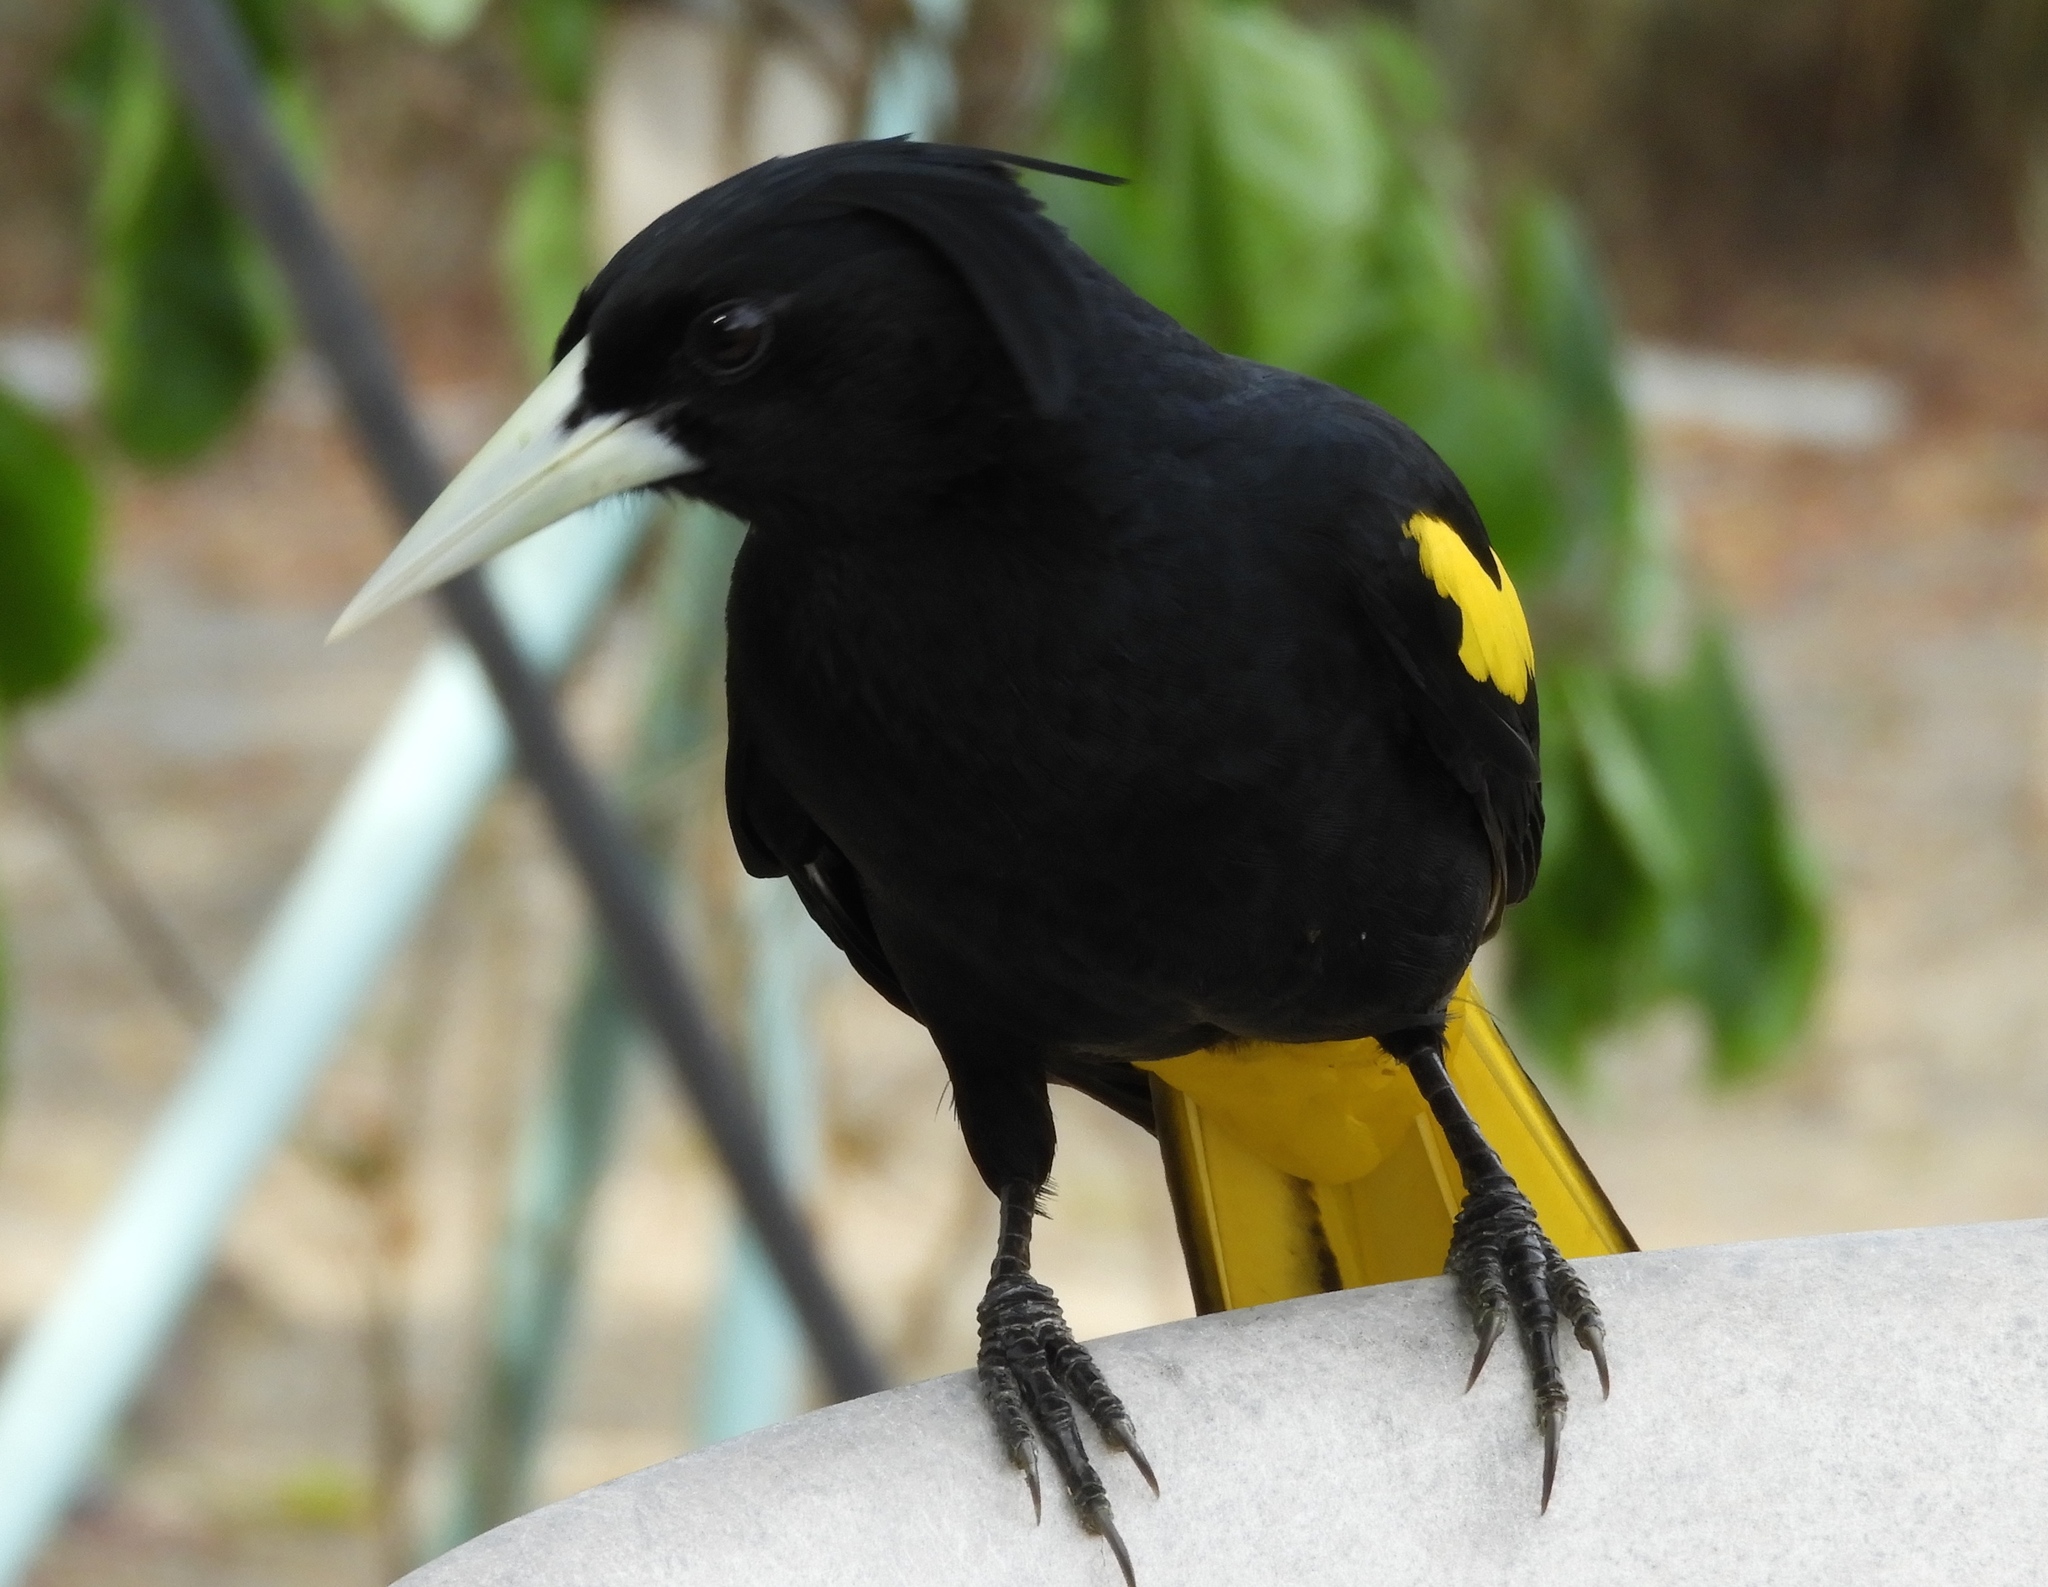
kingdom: Animalia
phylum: Chordata
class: Aves
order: Passeriformes
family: Icteridae
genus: Cacicus
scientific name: Cacicus melanicterus
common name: Yellow-winged cacique
